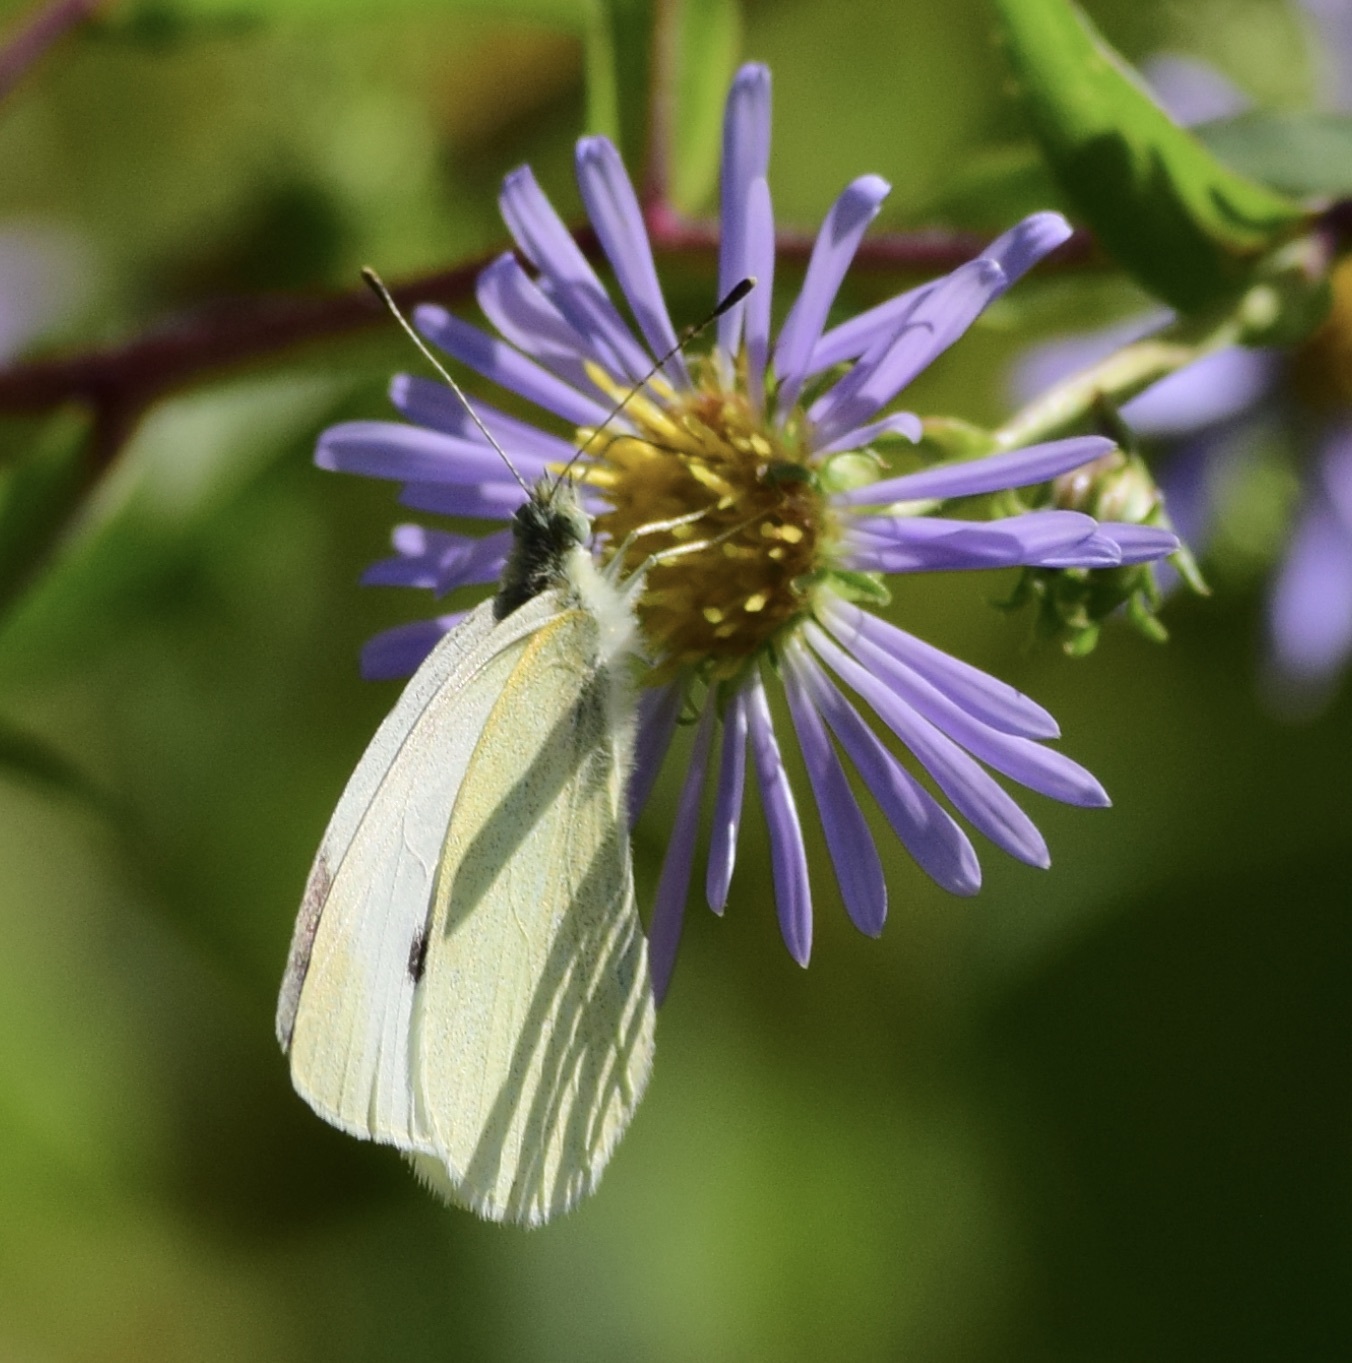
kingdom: Animalia
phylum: Arthropoda
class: Insecta
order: Lepidoptera
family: Pieridae
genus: Pieris
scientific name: Pieris rapae
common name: Small white
